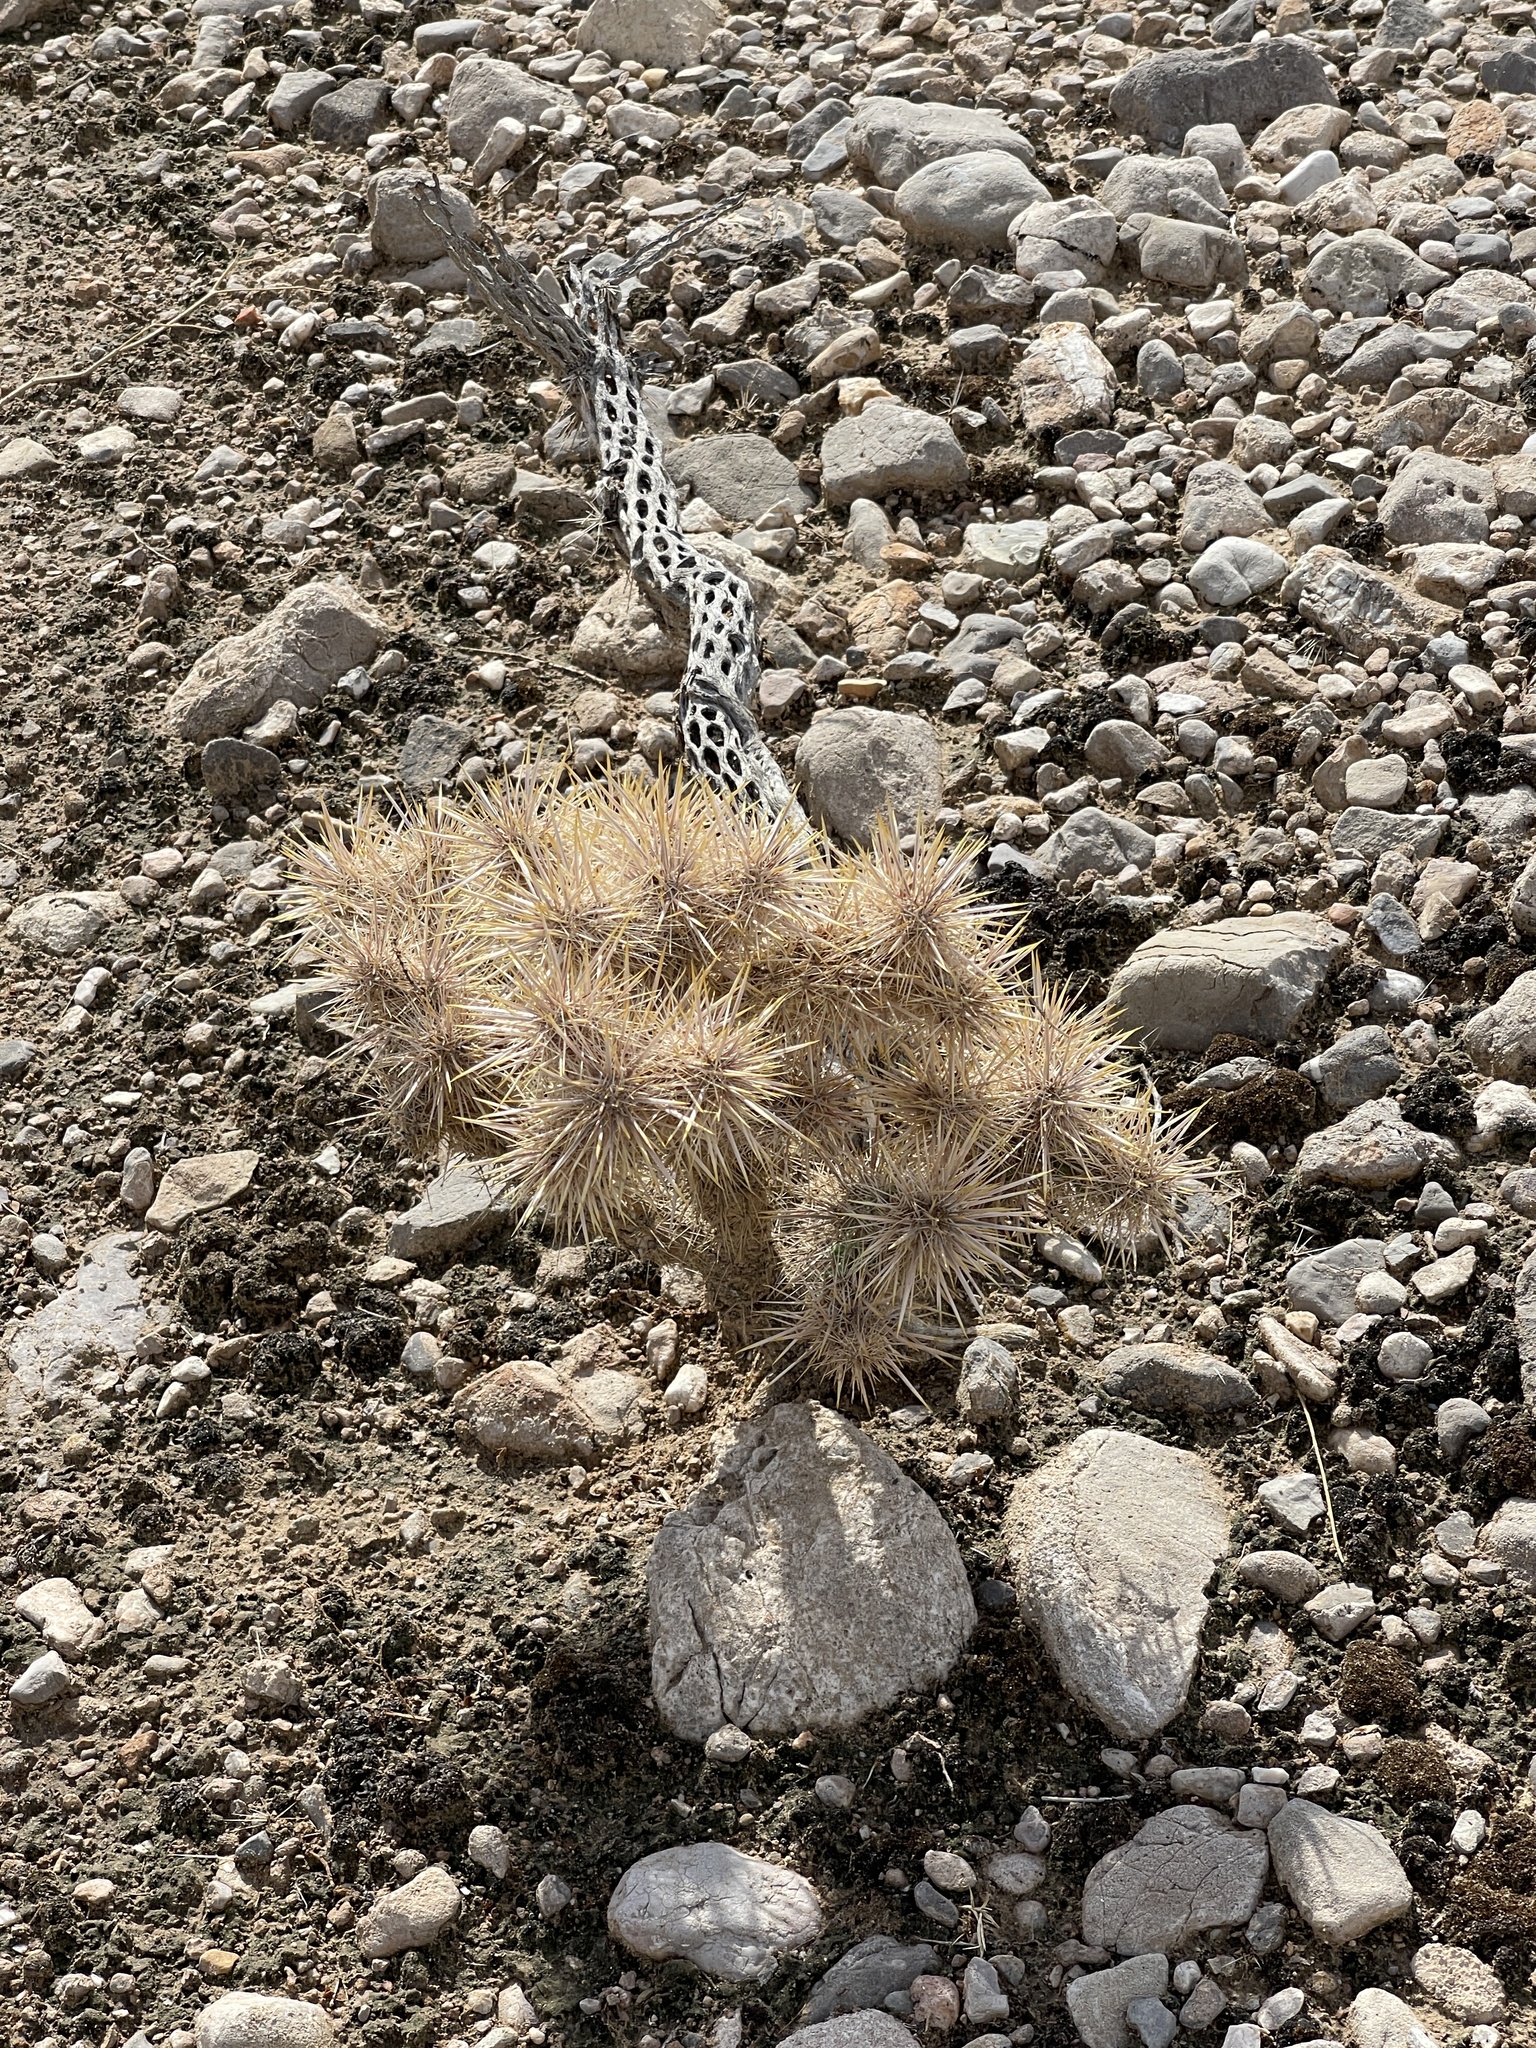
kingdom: Plantae
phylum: Tracheophyta
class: Magnoliopsida
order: Caryophyllales
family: Cactaceae
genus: Cylindropuntia
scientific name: Cylindropuntia echinocarpa
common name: Ground cholla
